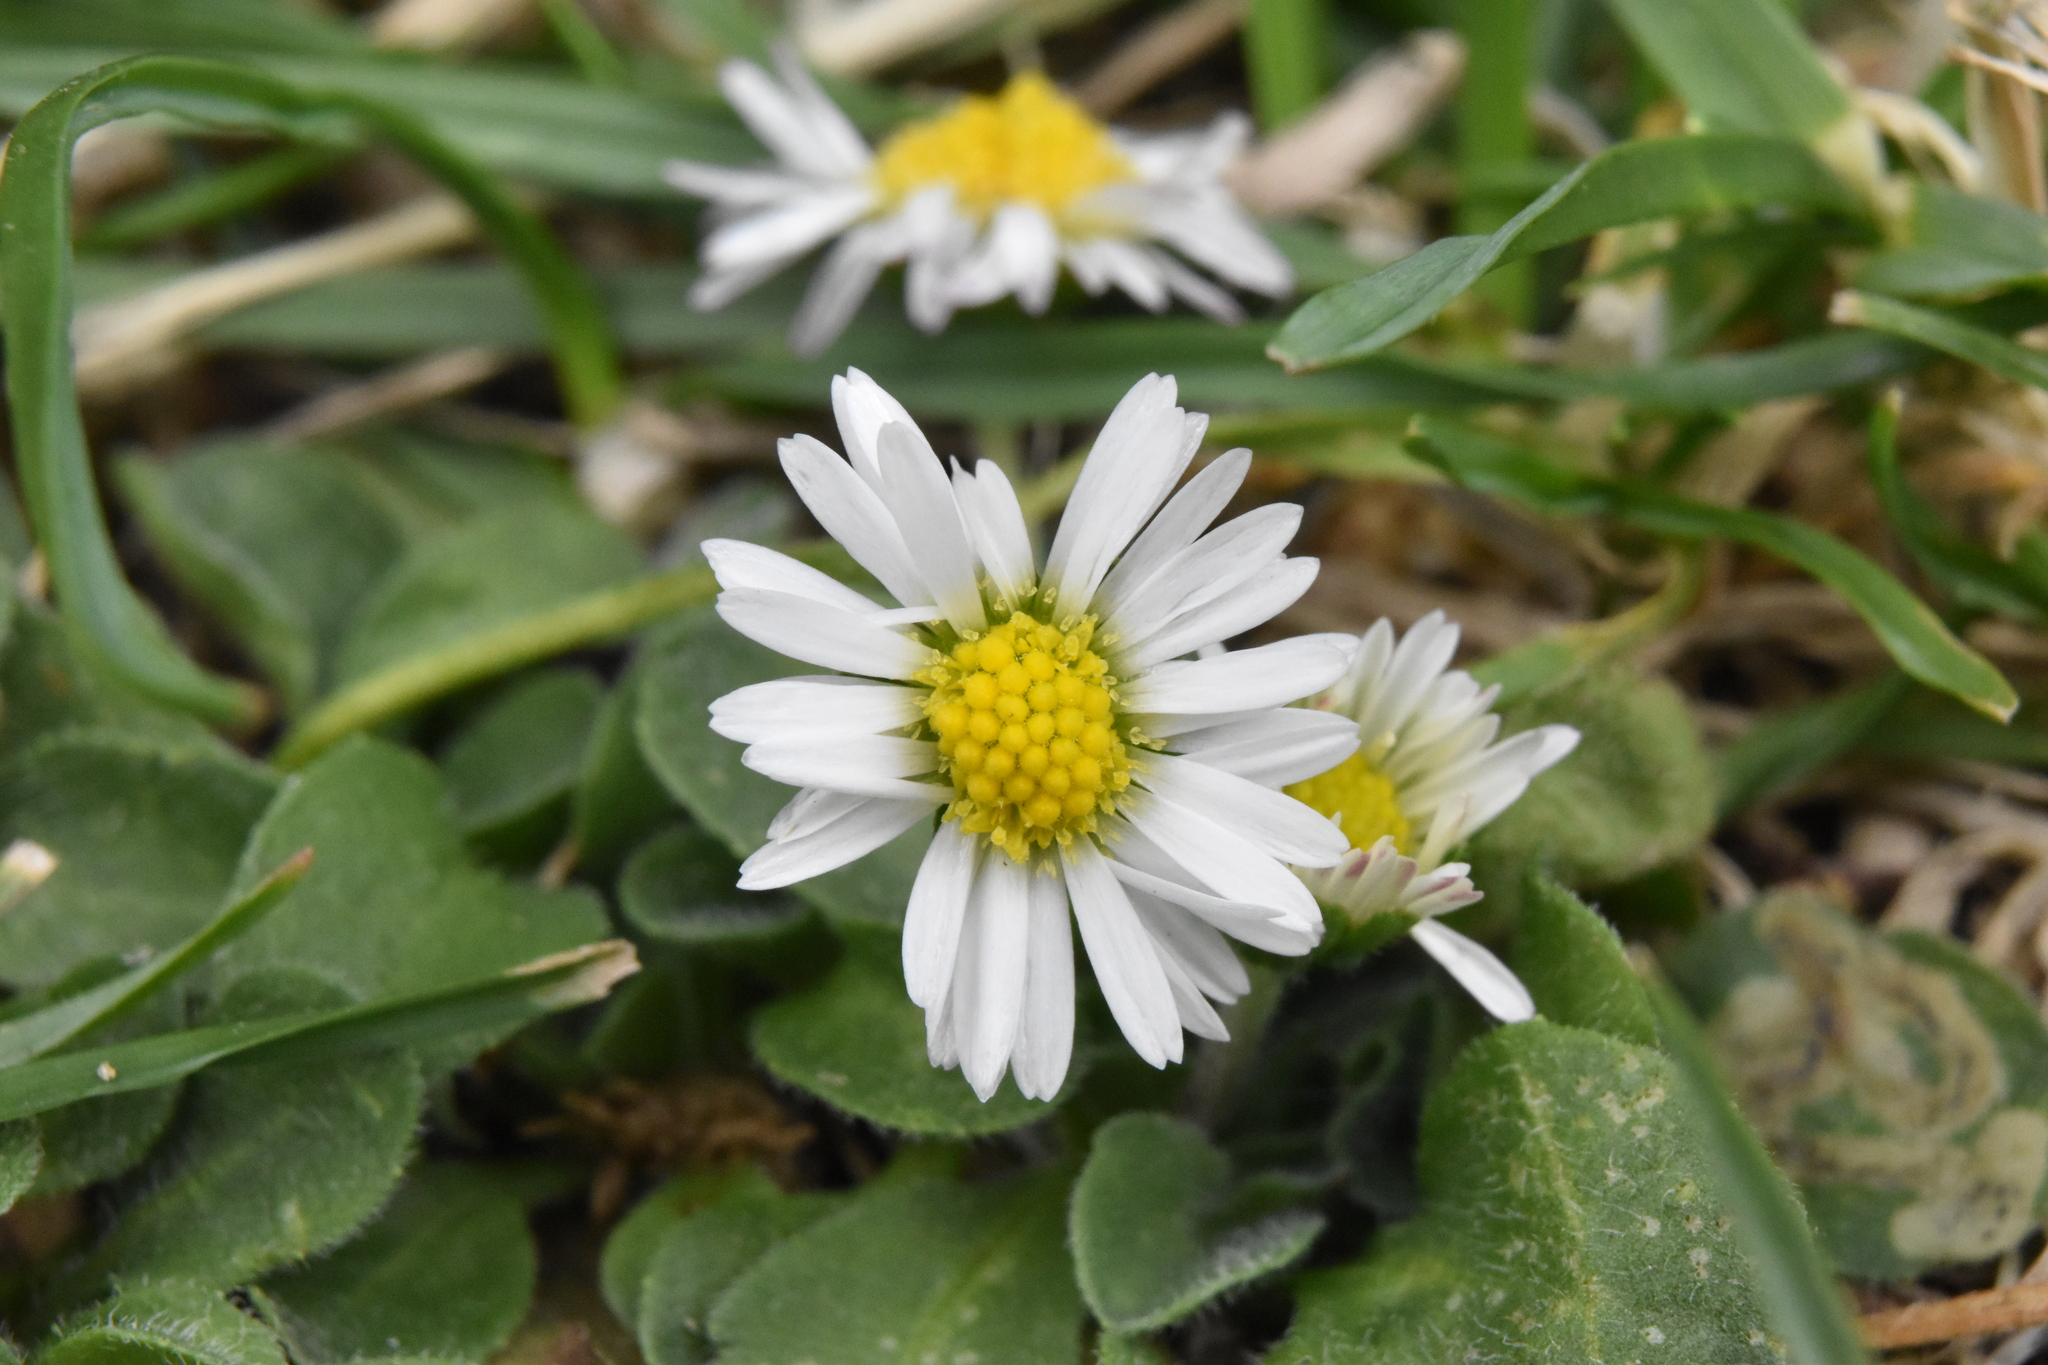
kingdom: Plantae
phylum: Tracheophyta
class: Magnoliopsida
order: Asterales
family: Asteraceae
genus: Bellis
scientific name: Bellis perennis
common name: Lawndaisy
